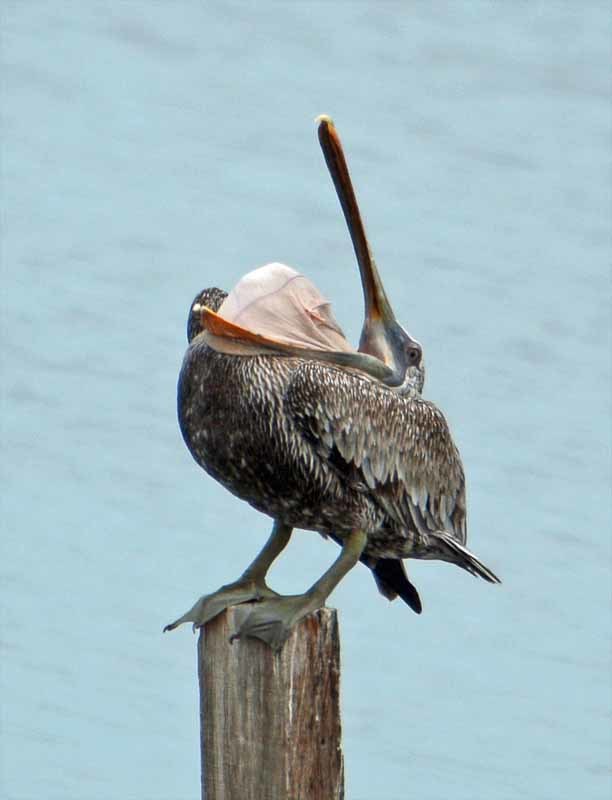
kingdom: Animalia
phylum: Chordata
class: Aves
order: Pelecaniformes
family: Pelecanidae
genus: Pelecanus
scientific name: Pelecanus occidentalis
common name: Brown pelican
